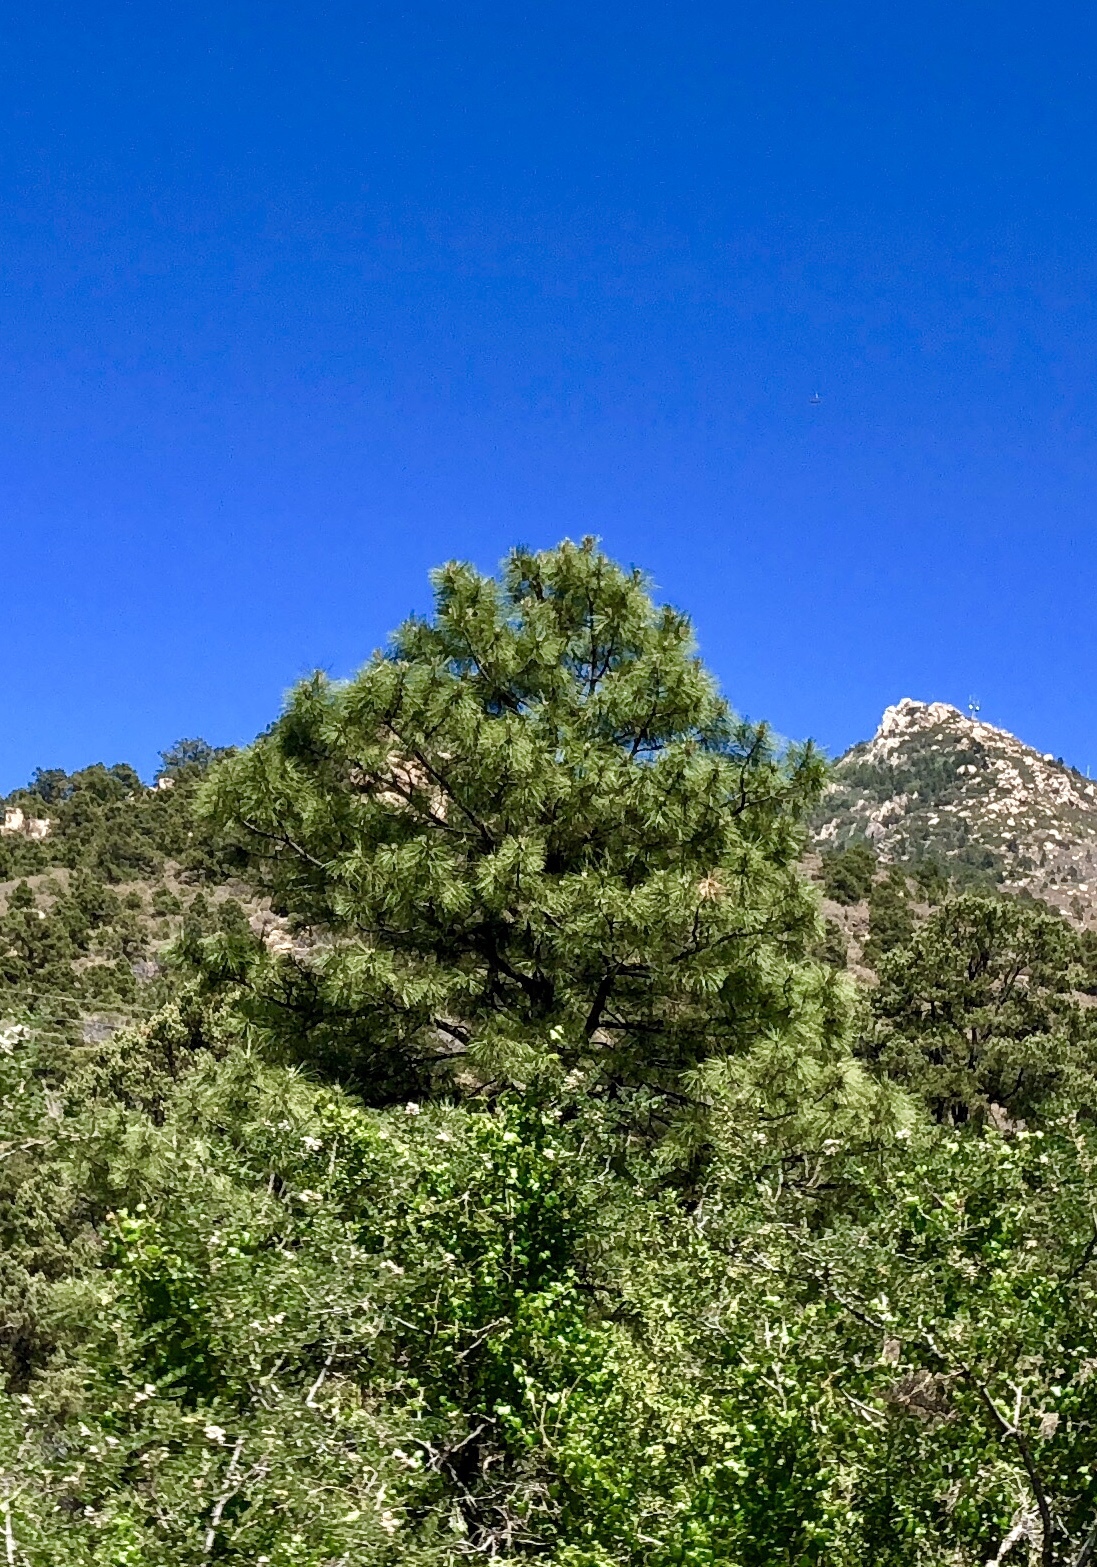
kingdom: Plantae
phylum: Tracheophyta
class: Pinopsida
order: Pinales
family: Pinaceae
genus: Pinus
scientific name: Pinus ponderosa
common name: Western yellow-pine
